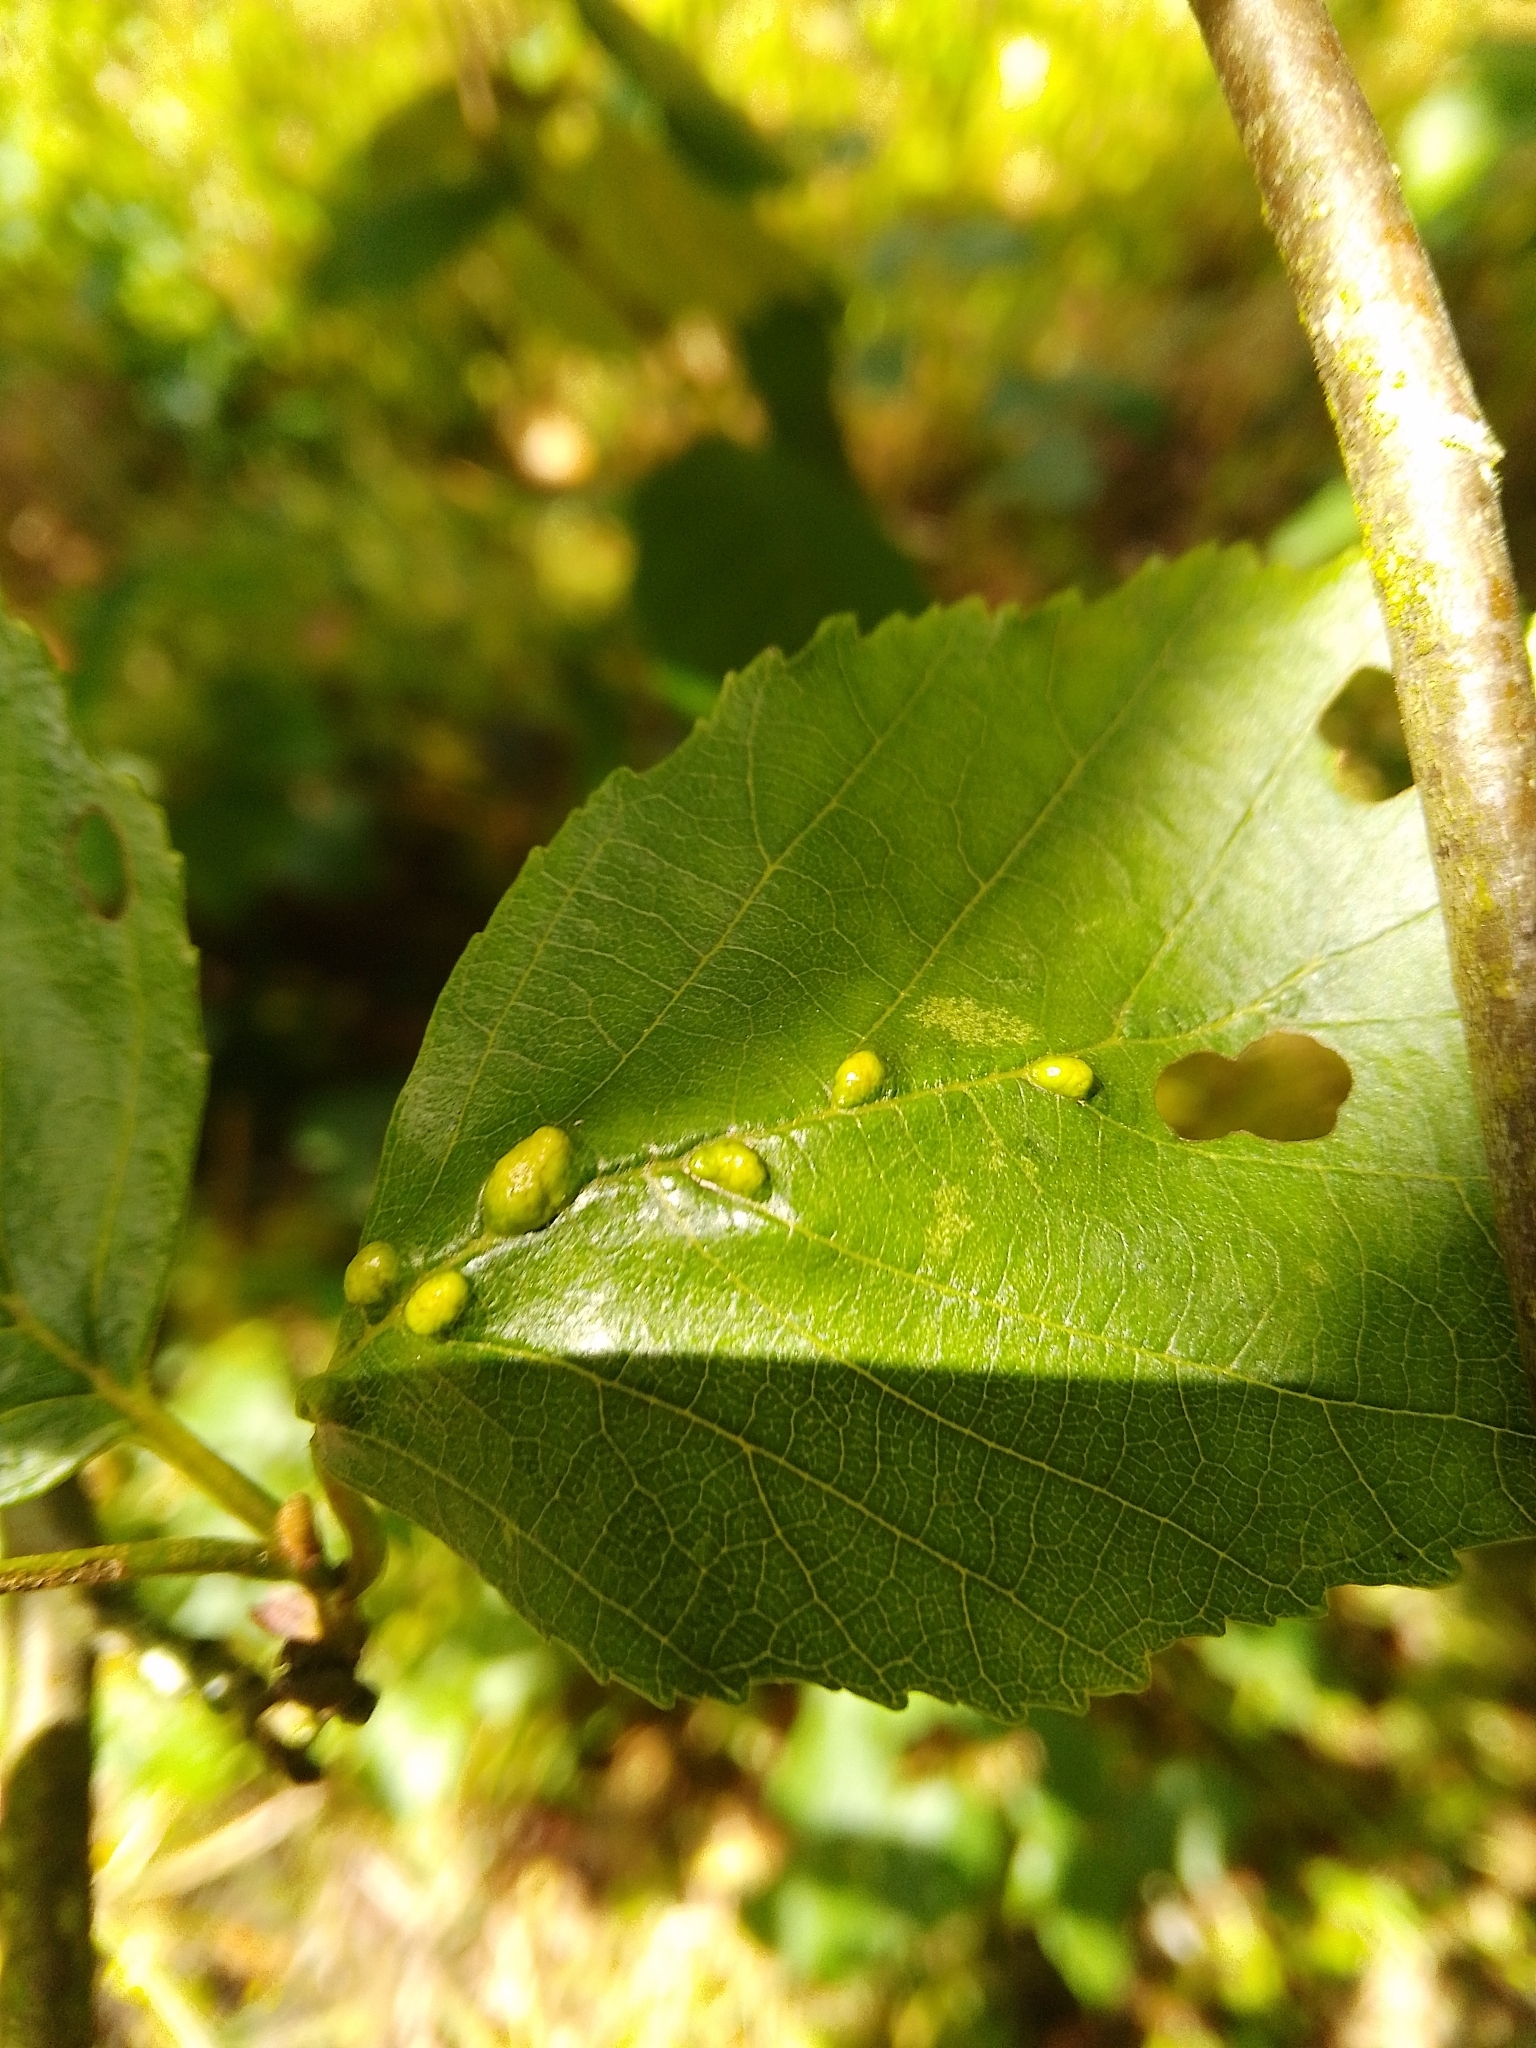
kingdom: Animalia
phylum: Arthropoda
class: Arachnida
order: Trombidiformes
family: Eriophyidae
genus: Eriophyes
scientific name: Eriophyes inangulis
